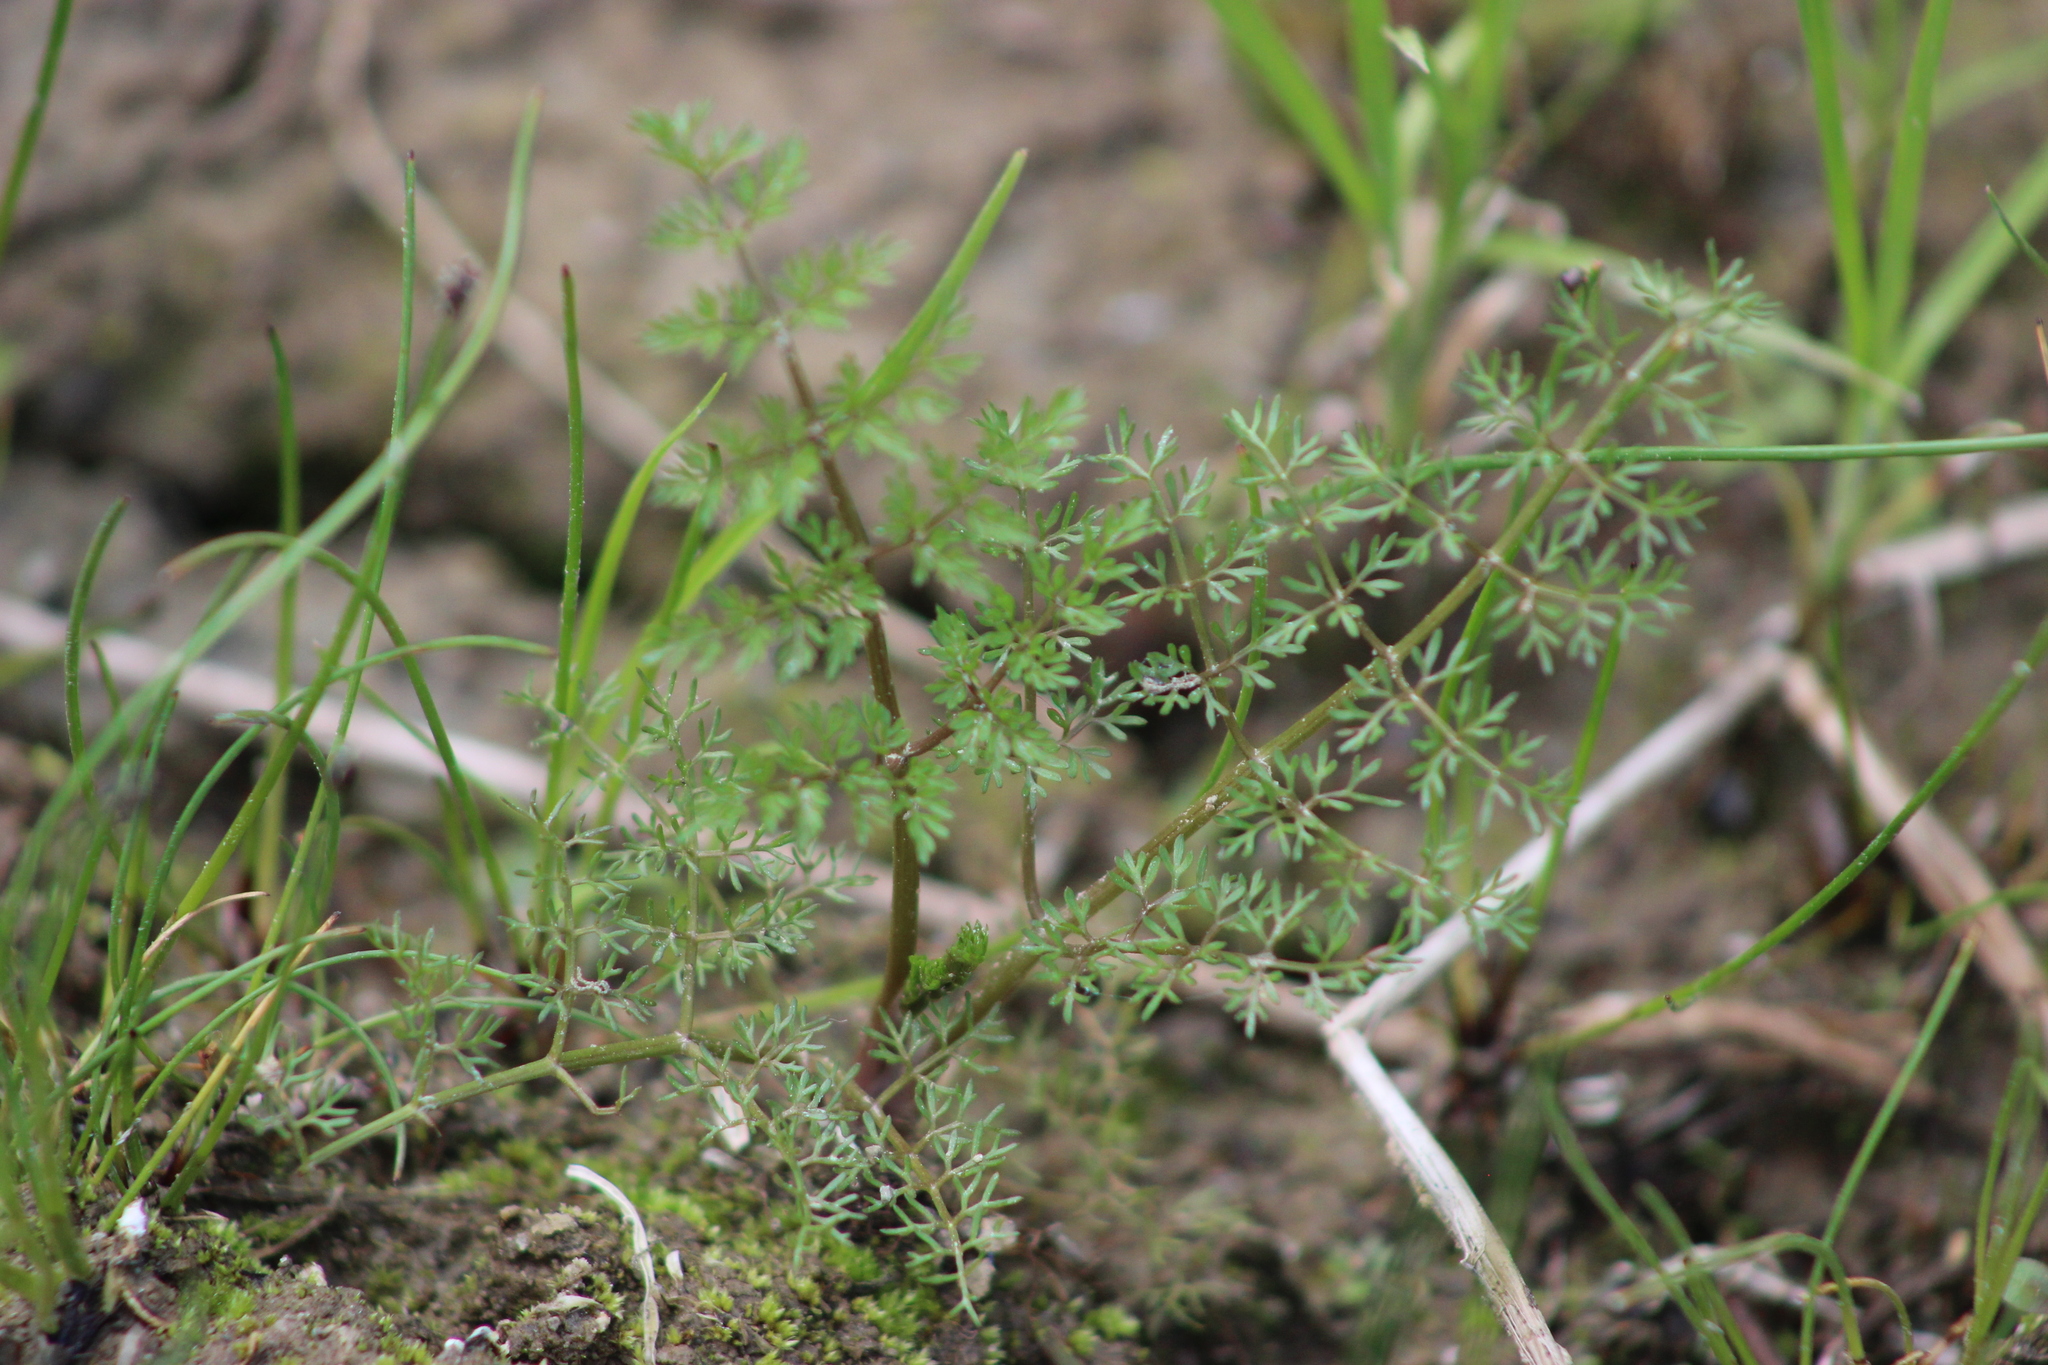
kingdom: Plantae
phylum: Tracheophyta
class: Magnoliopsida
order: Apiales
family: Apiaceae
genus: Oenanthe
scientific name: Oenanthe aquatica
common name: Fine-leaved water-dropwort
